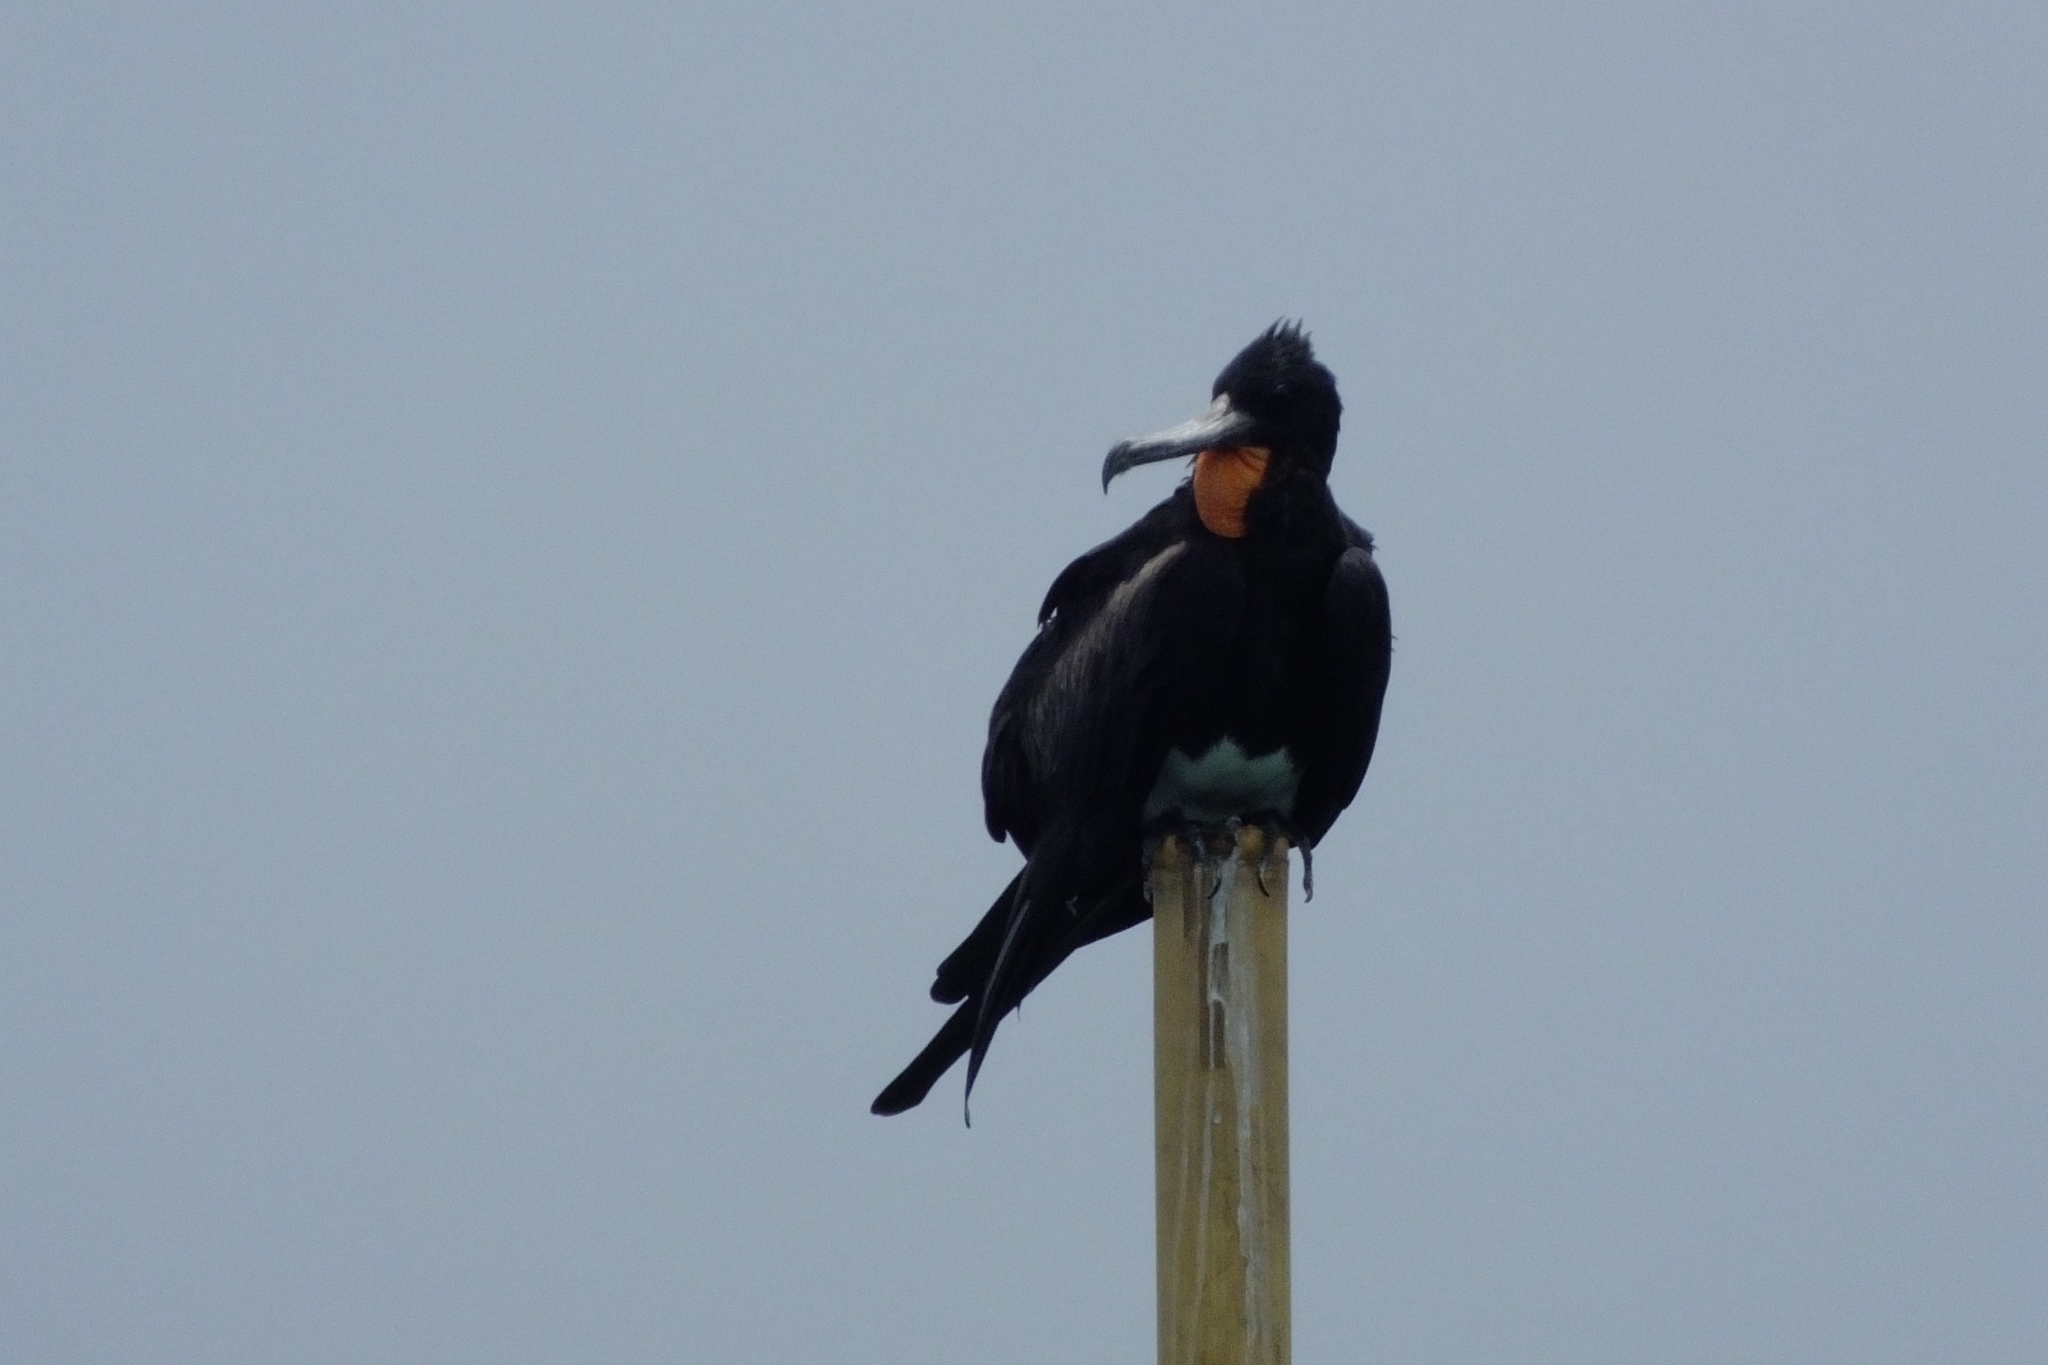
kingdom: Animalia
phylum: Chordata
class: Aves
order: Suliformes
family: Fregatidae
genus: Fregata
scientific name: Fregata andrewsi
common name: Christmas frigatebird
